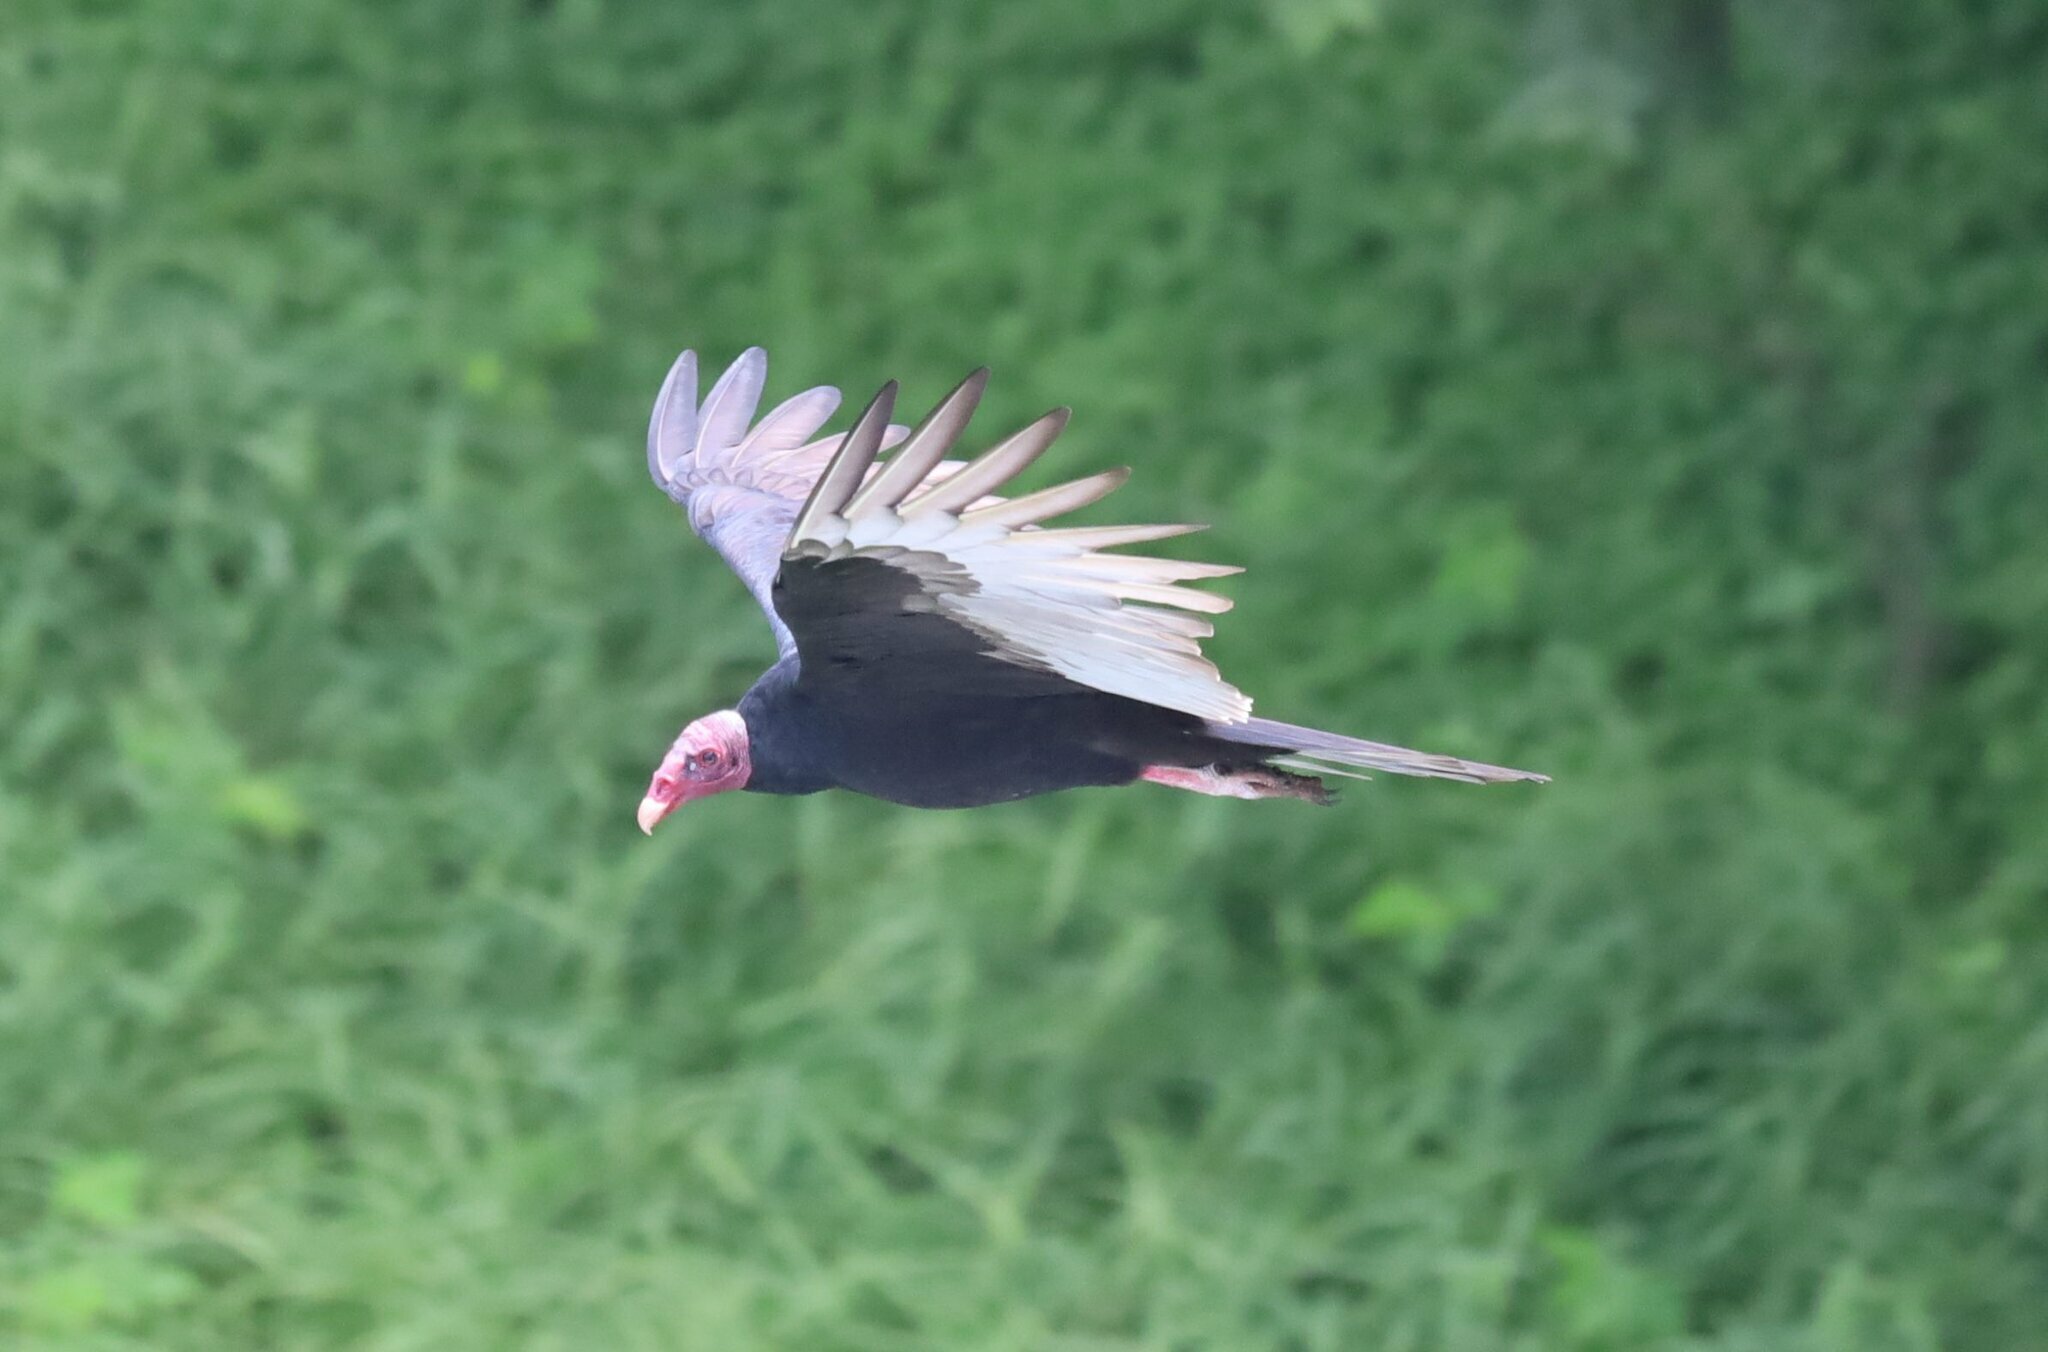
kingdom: Animalia
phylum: Chordata
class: Aves
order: Accipitriformes
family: Cathartidae
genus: Cathartes
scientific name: Cathartes aura
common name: Turkey vulture
